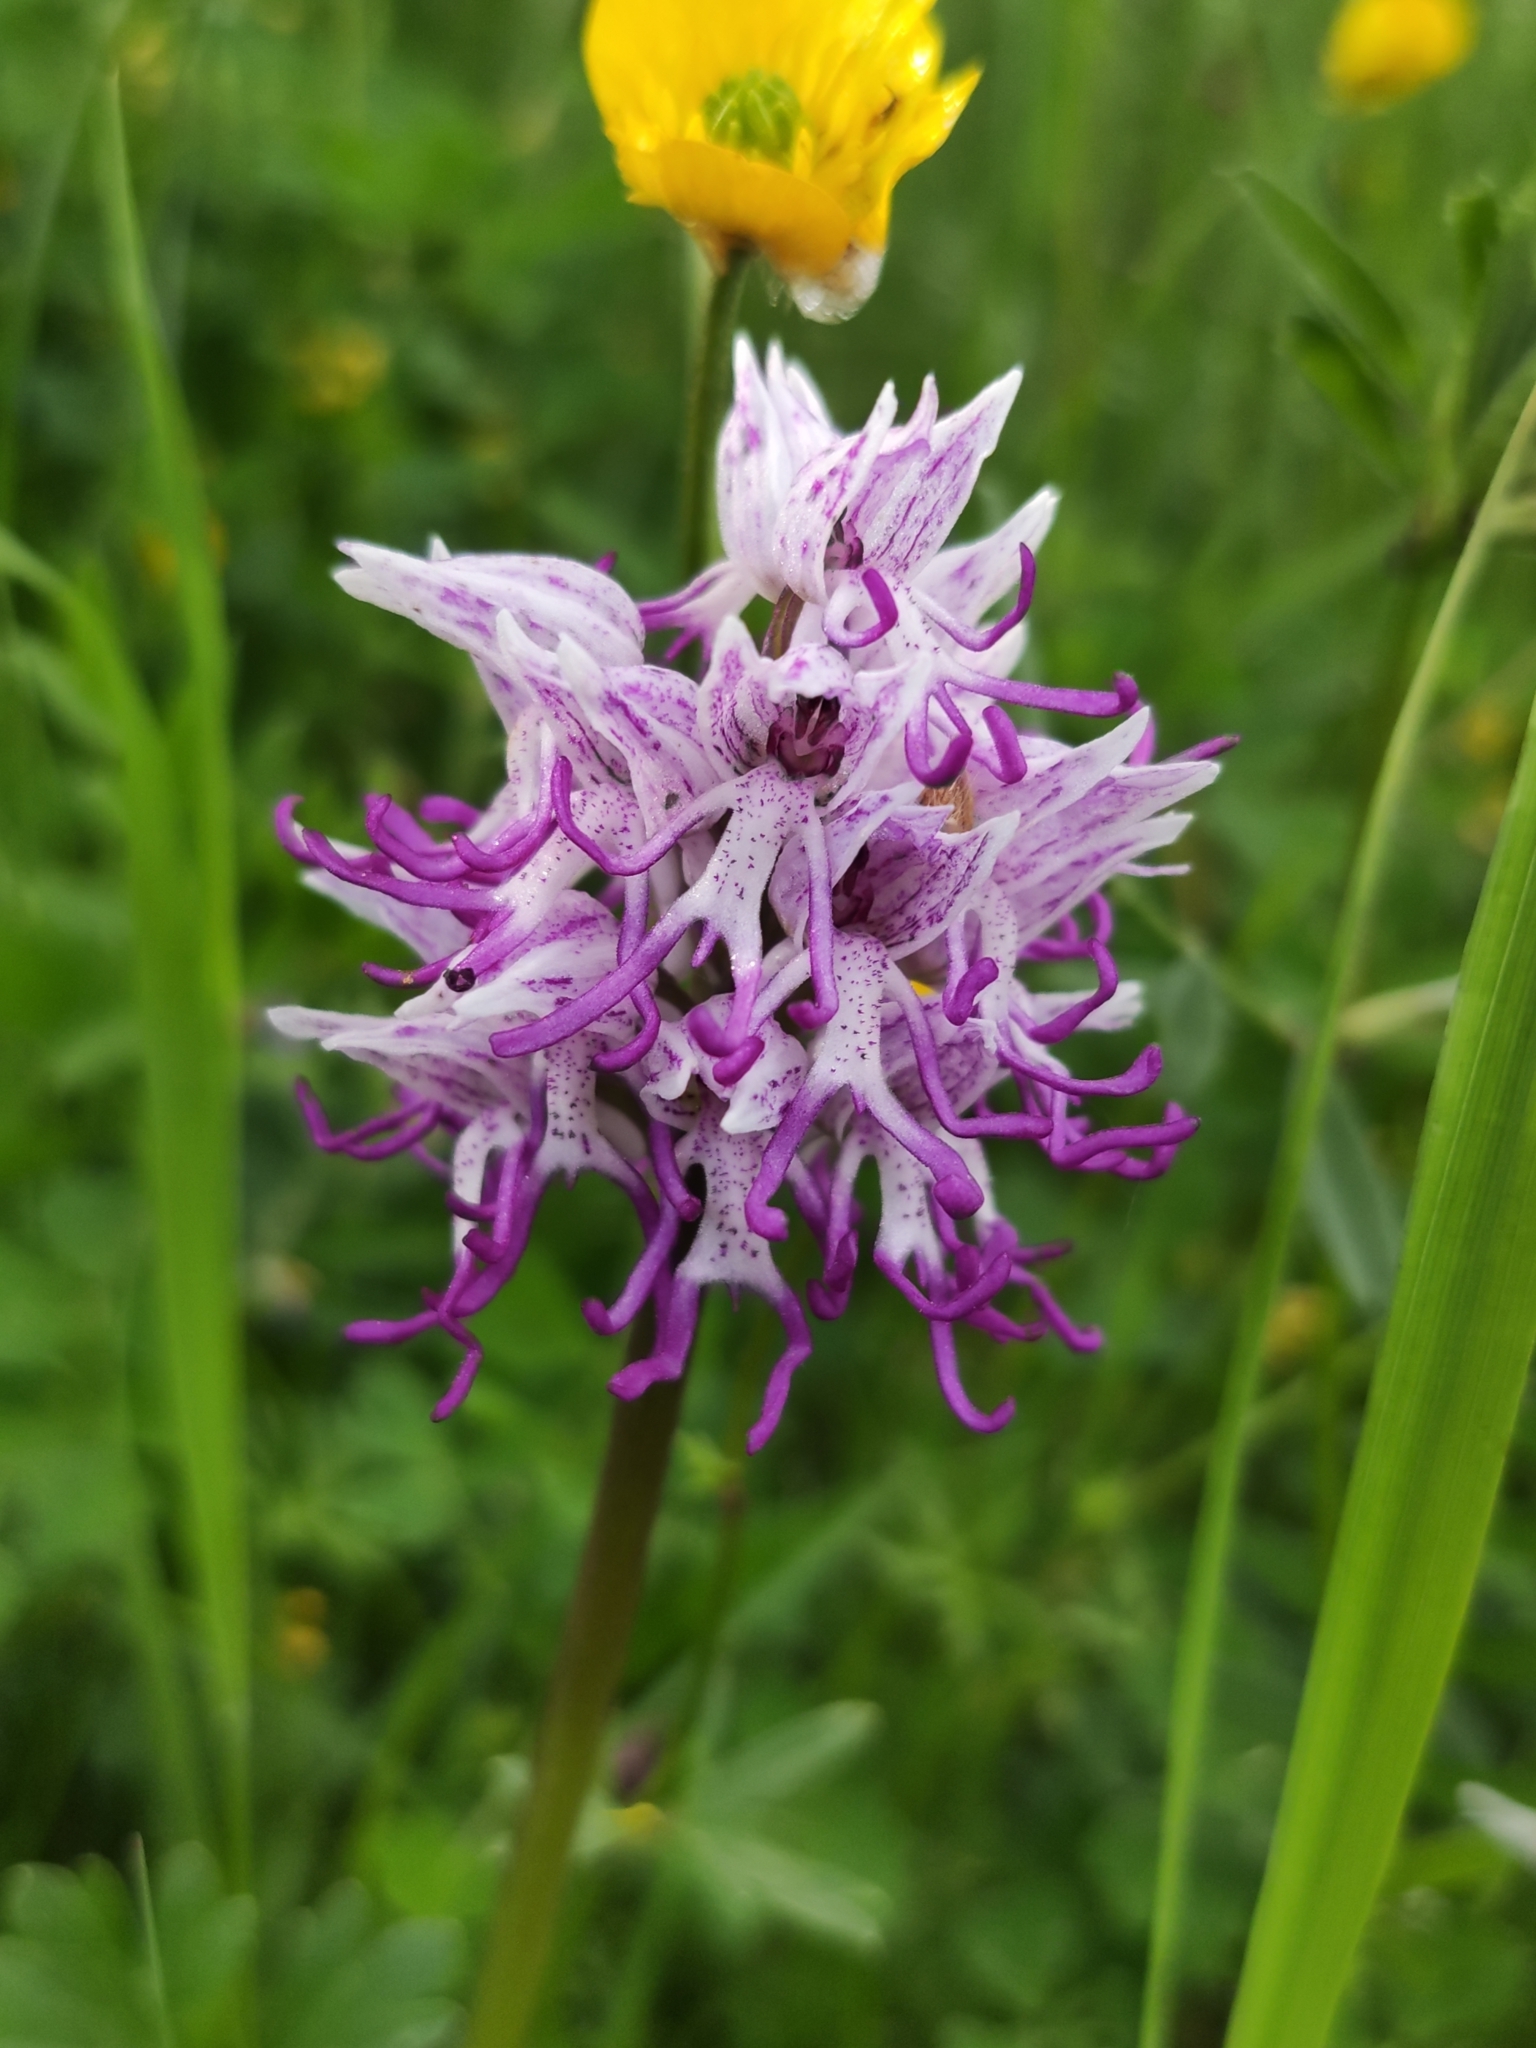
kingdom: Plantae
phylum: Tracheophyta
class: Liliopsida
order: Asparagales
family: Orchidaceae
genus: Orchis
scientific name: Orchis simia
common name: Monkey orchid
